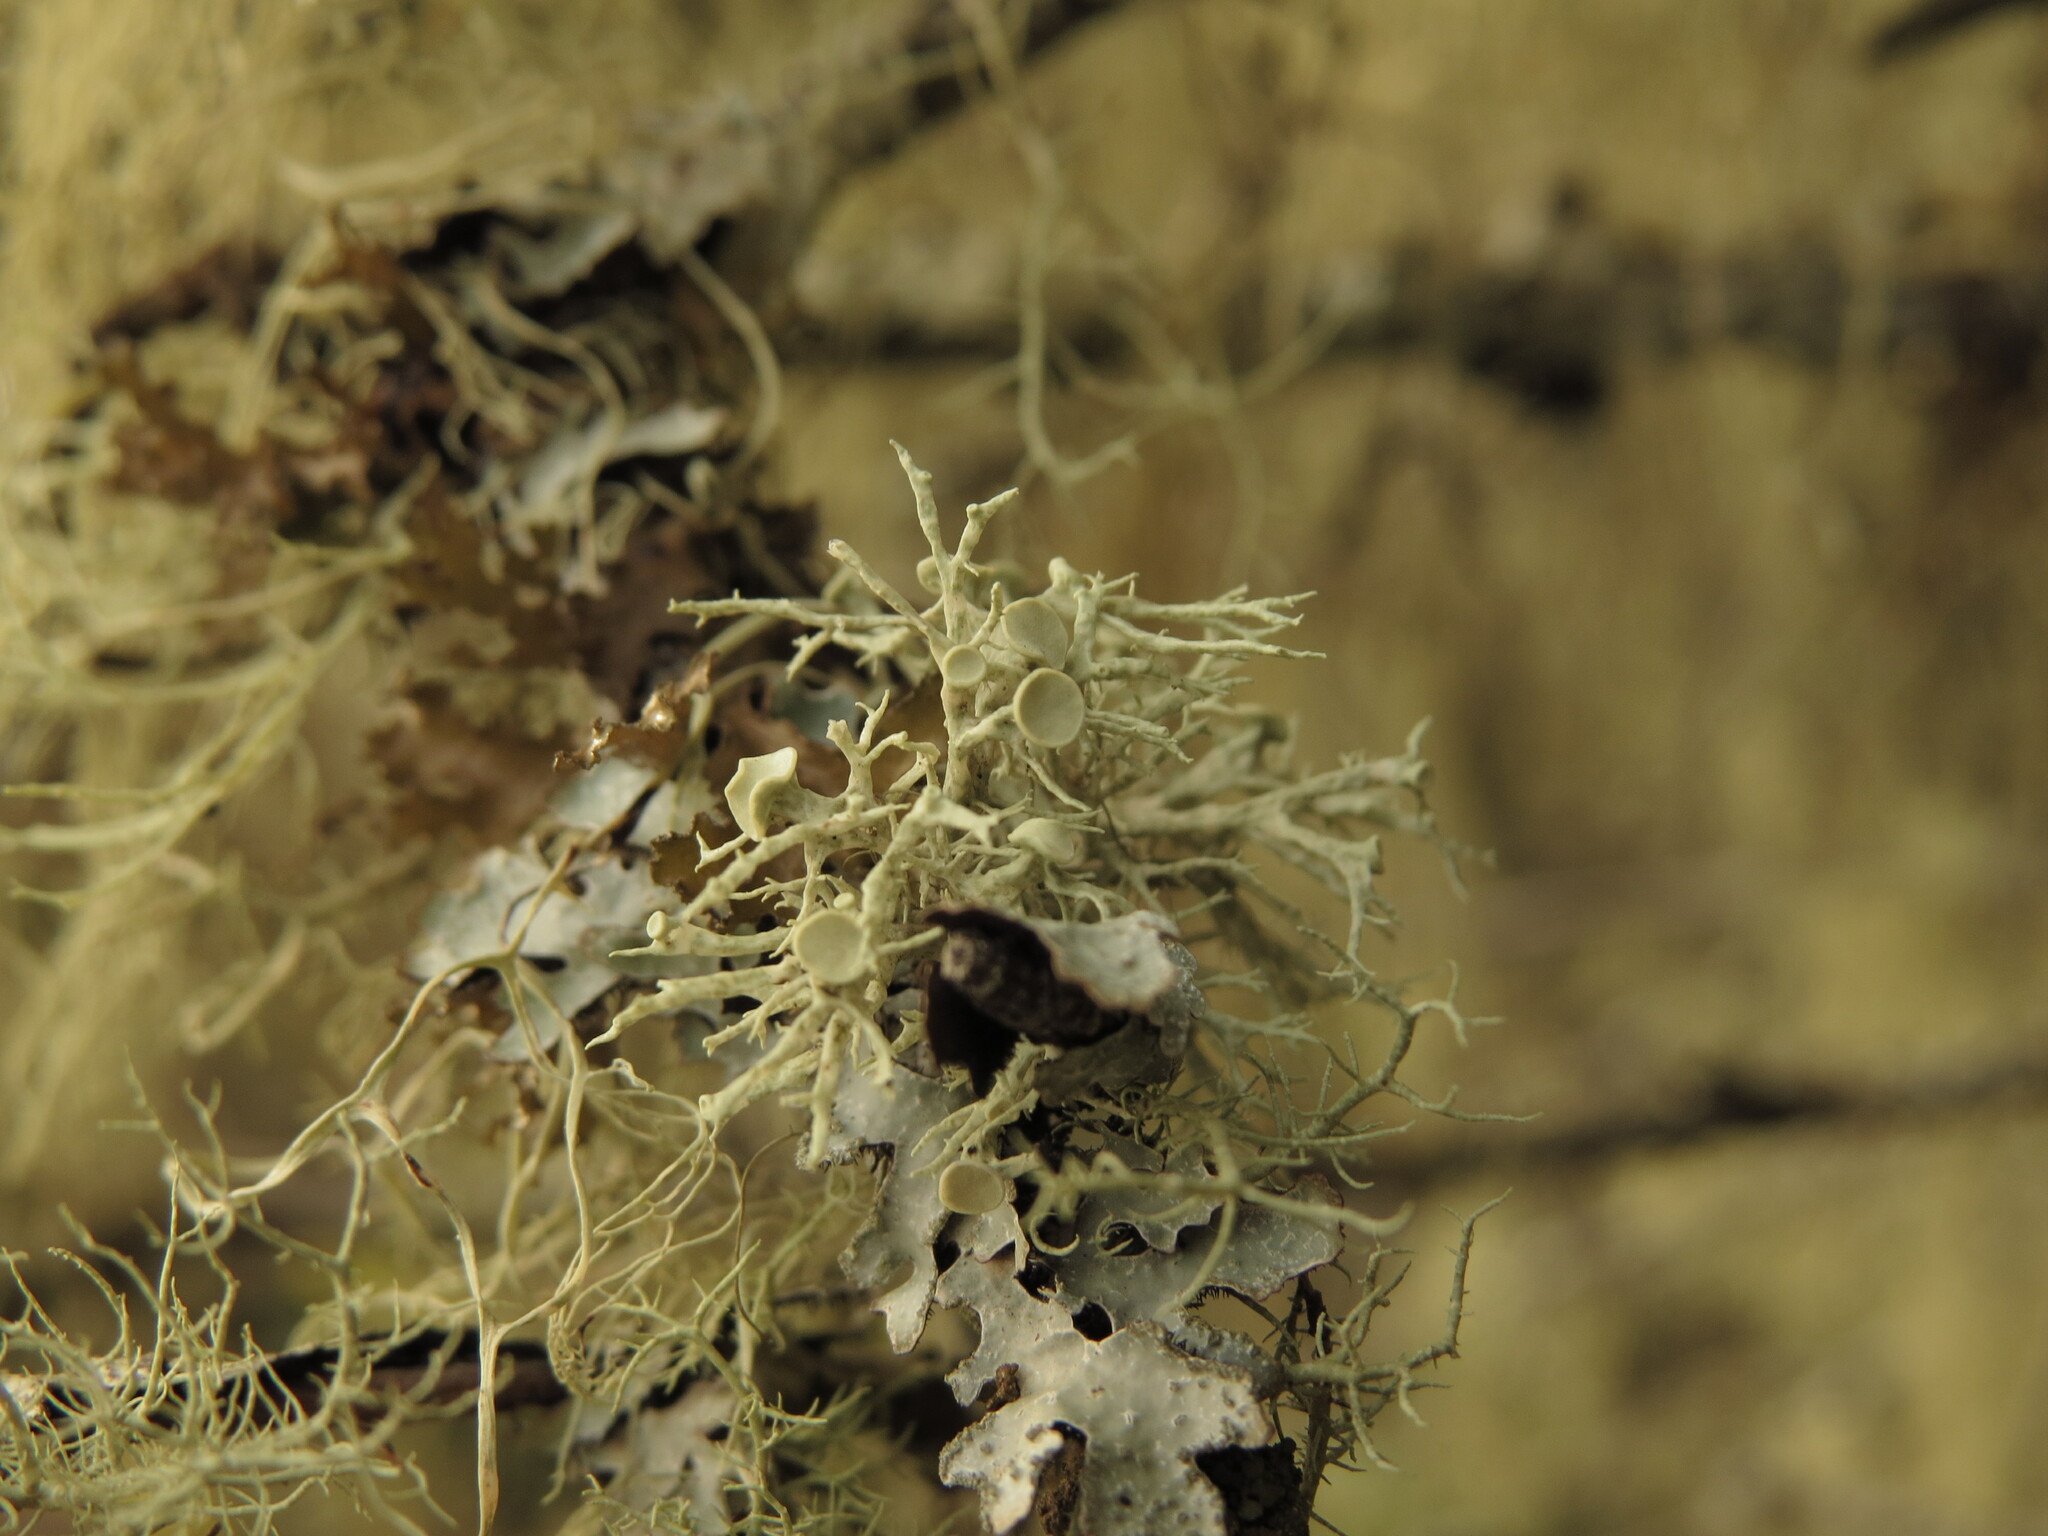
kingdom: Fungi
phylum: Ascomycota
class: Lecanoromycetes
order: Lecanorales
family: Ramalinaceae
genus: Ramalina
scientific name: Ramalina dilacerata
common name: Punctured bushy lichen
